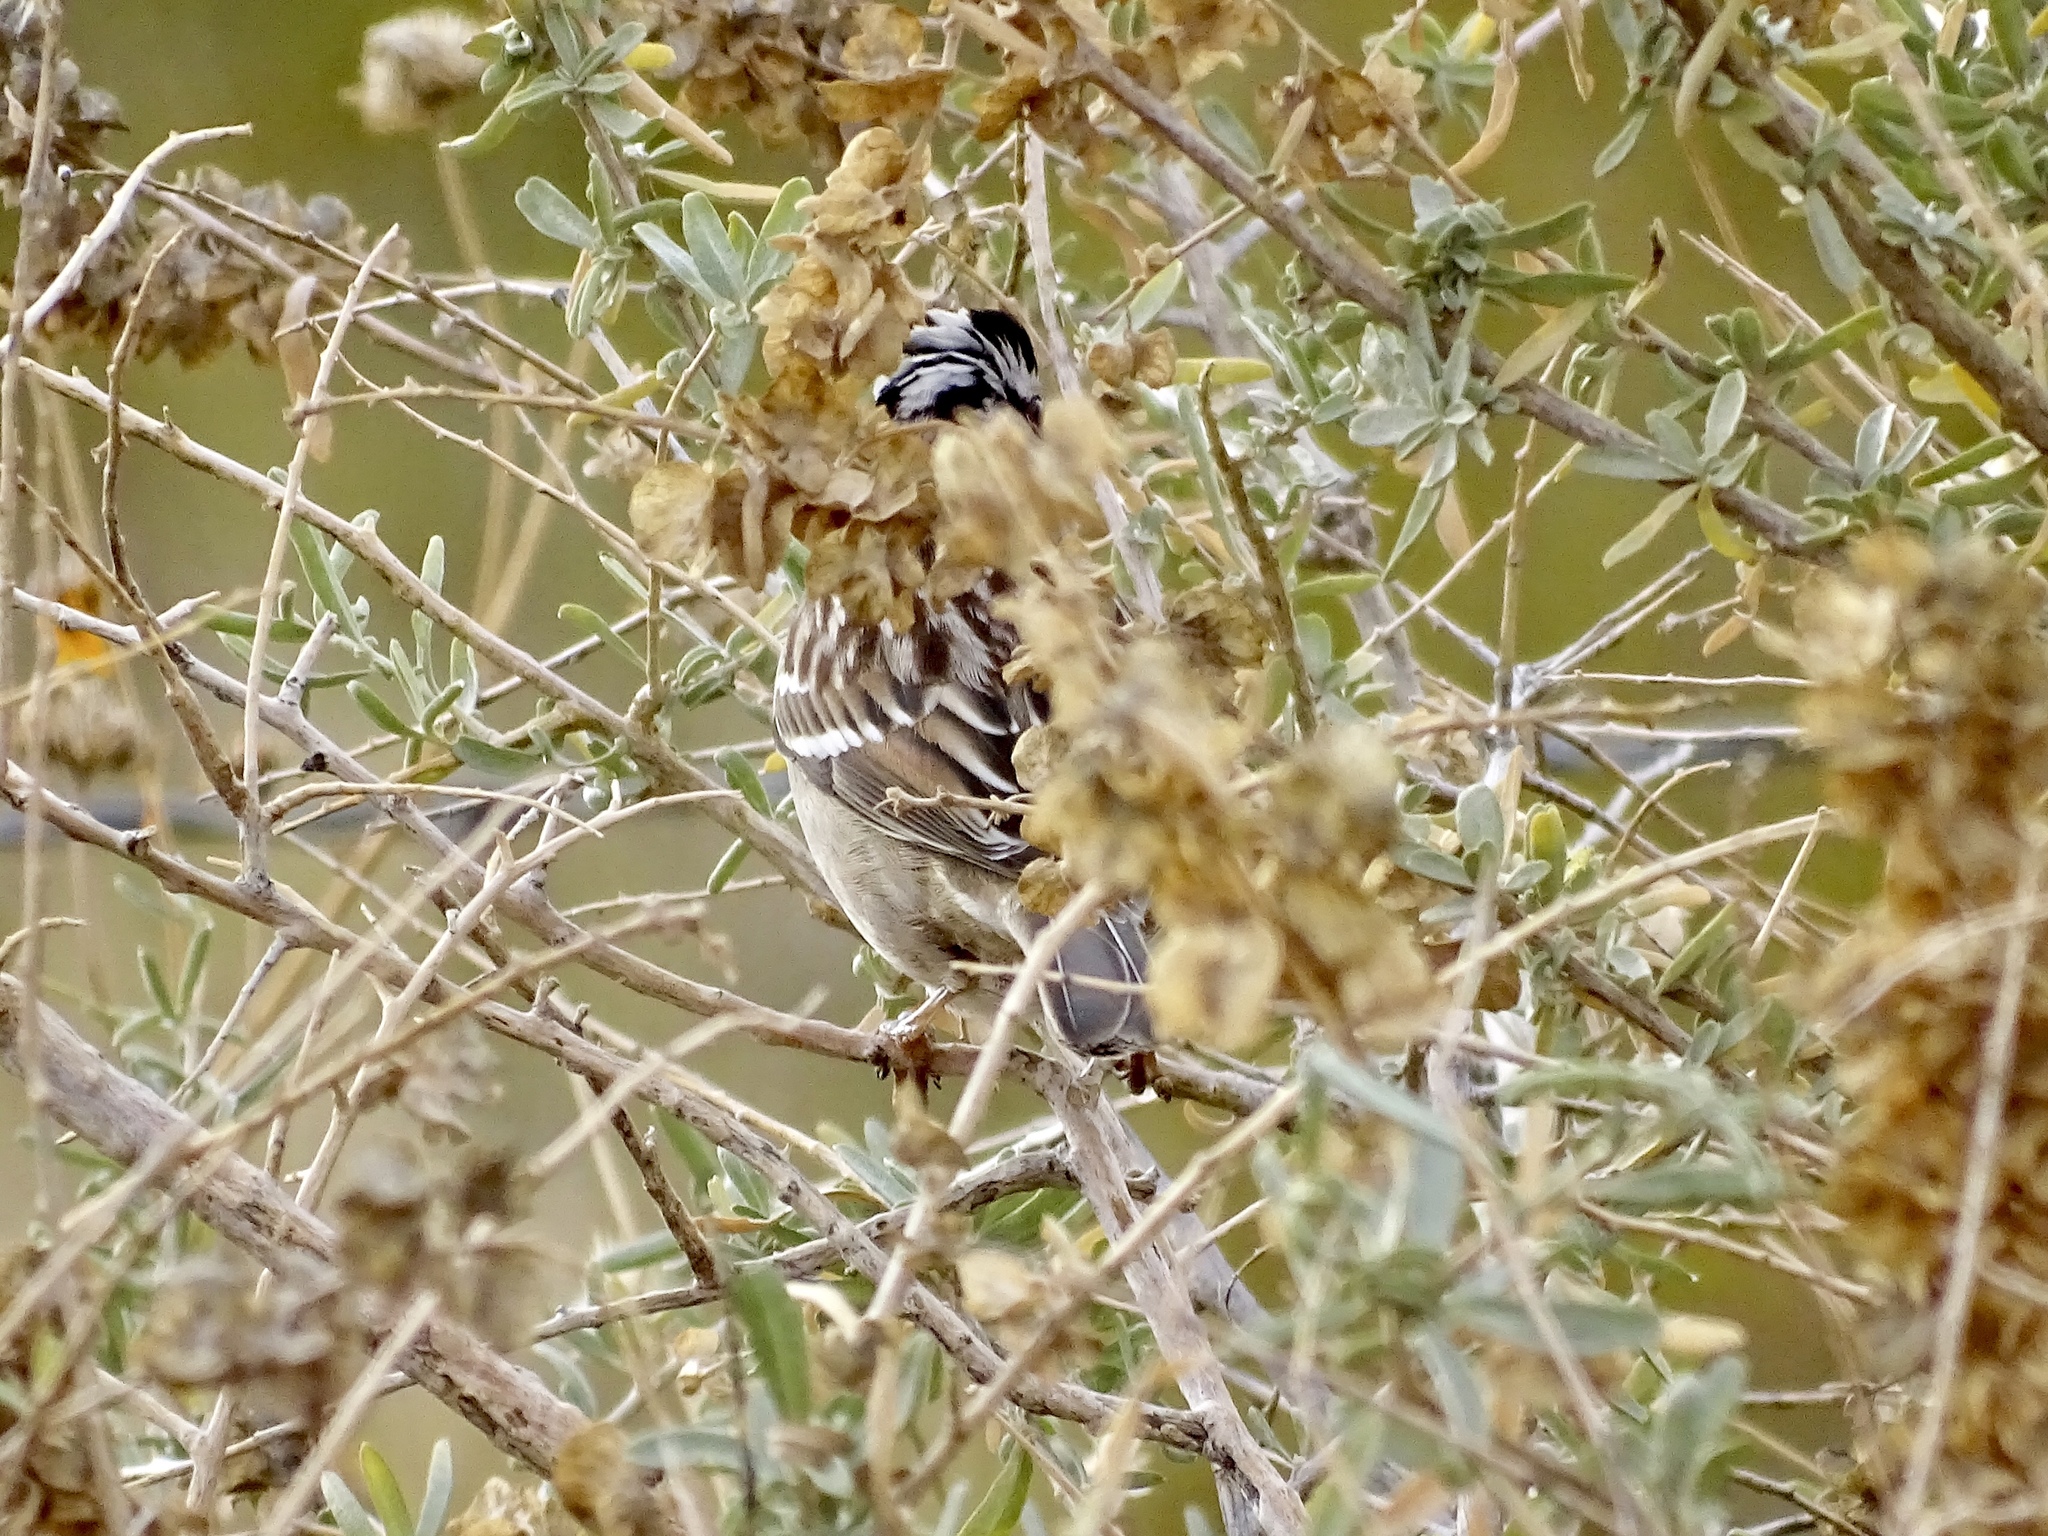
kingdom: Animalia
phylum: Chordata
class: Aves
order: Passeriformes
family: Passerellidae
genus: Zonotrichia
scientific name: Zonotrichia leucophrys
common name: White-crowned sparrow
